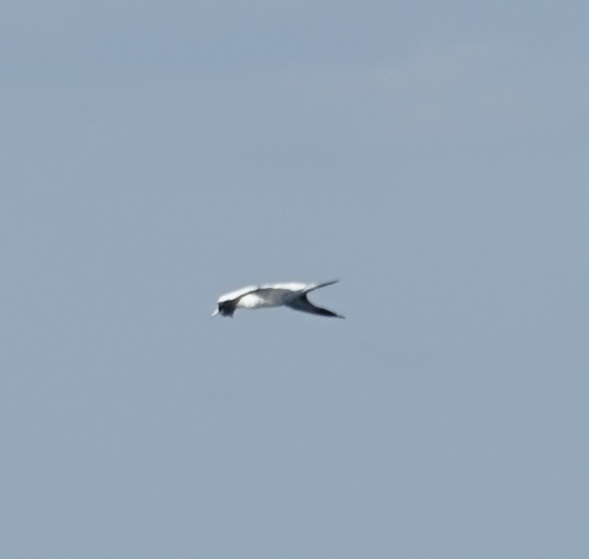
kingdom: Animalia
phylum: Chordata
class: Aves
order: Suliformes
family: Sulidae
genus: Morus
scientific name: Morus serrator
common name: Australasian gannet
